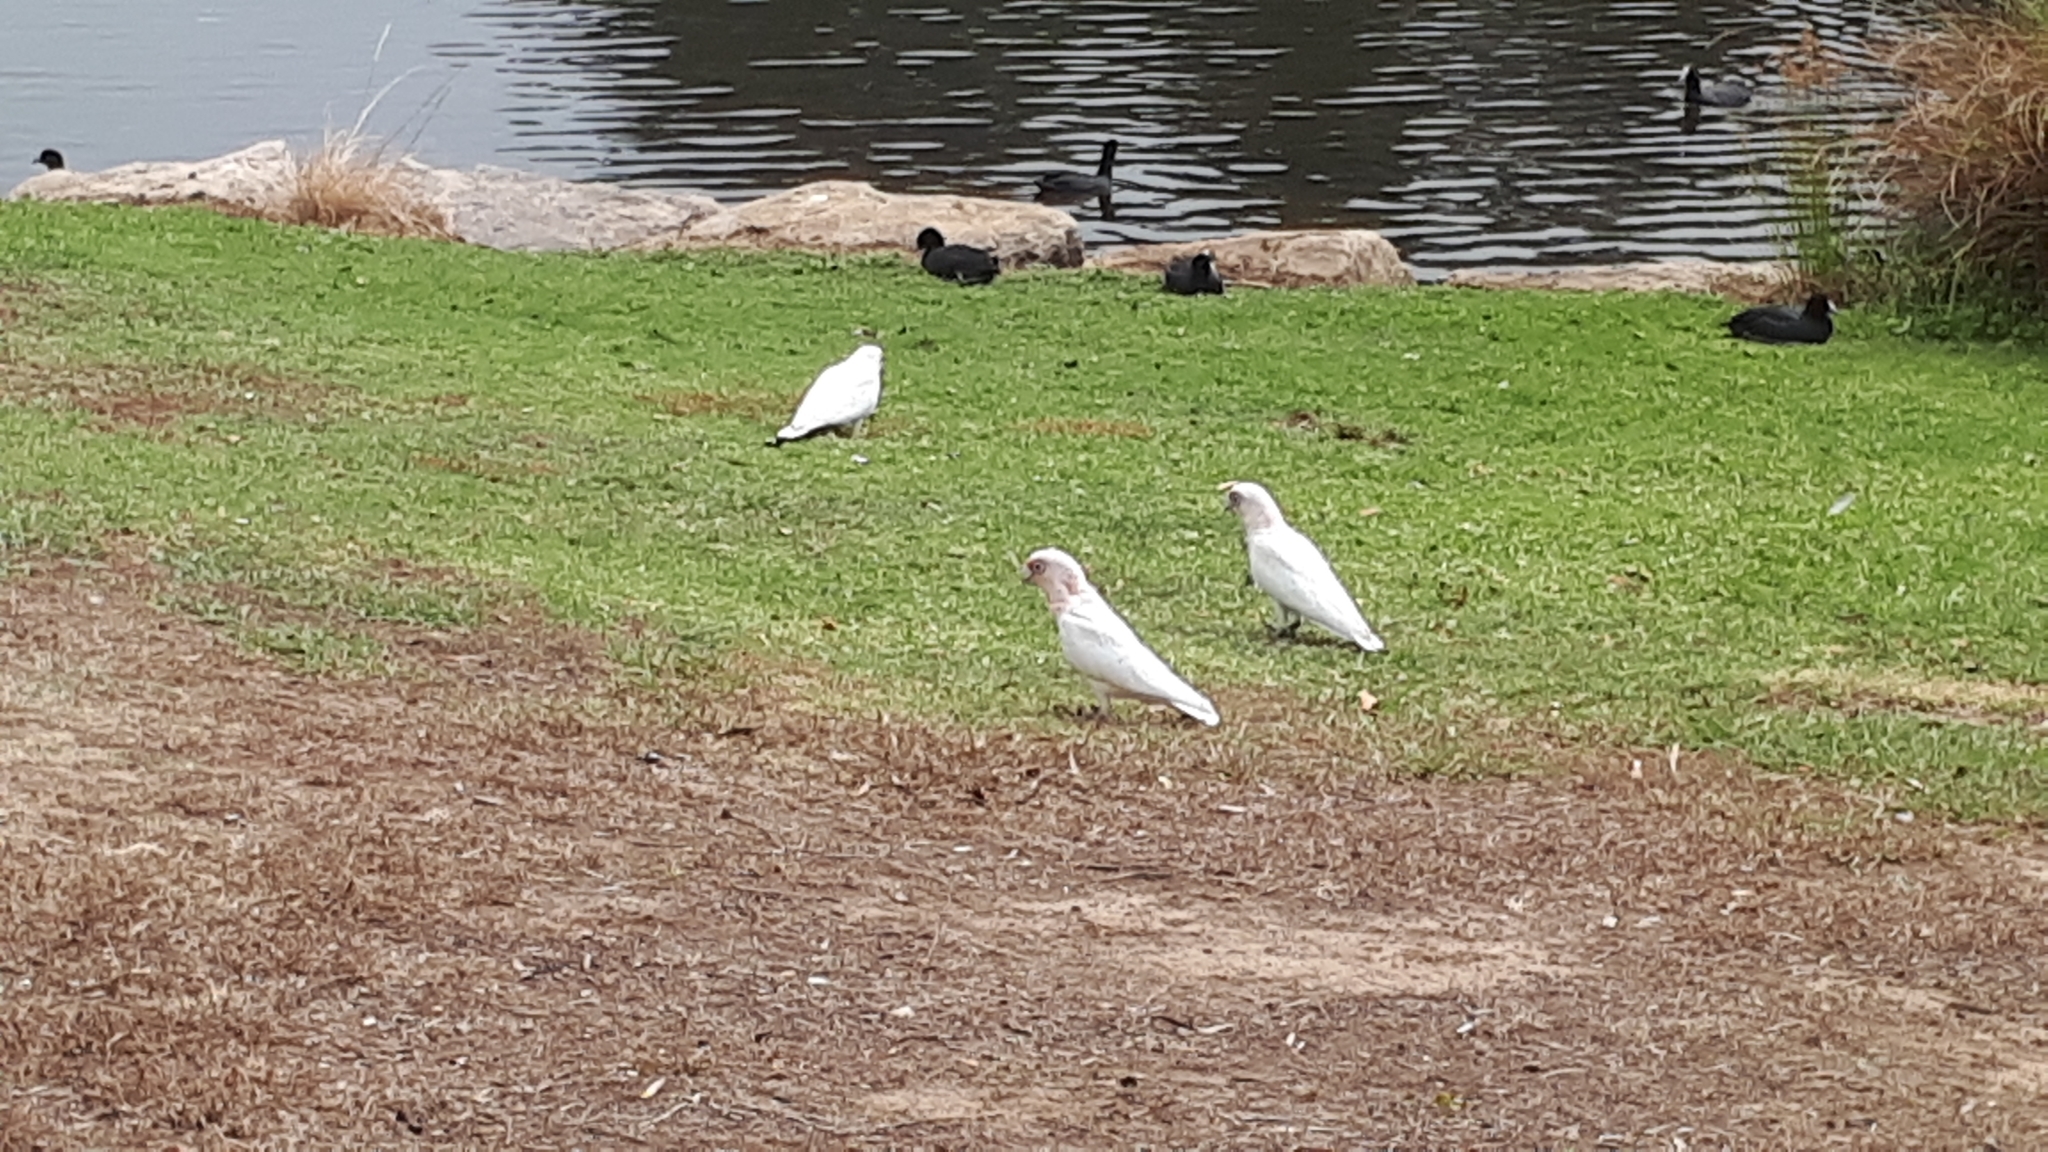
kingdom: Animalia
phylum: Chordata
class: Aves
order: Psittaciformes
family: Psittacidae
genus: Cacatua
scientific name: Cacatua sanguinea
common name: Little corella
